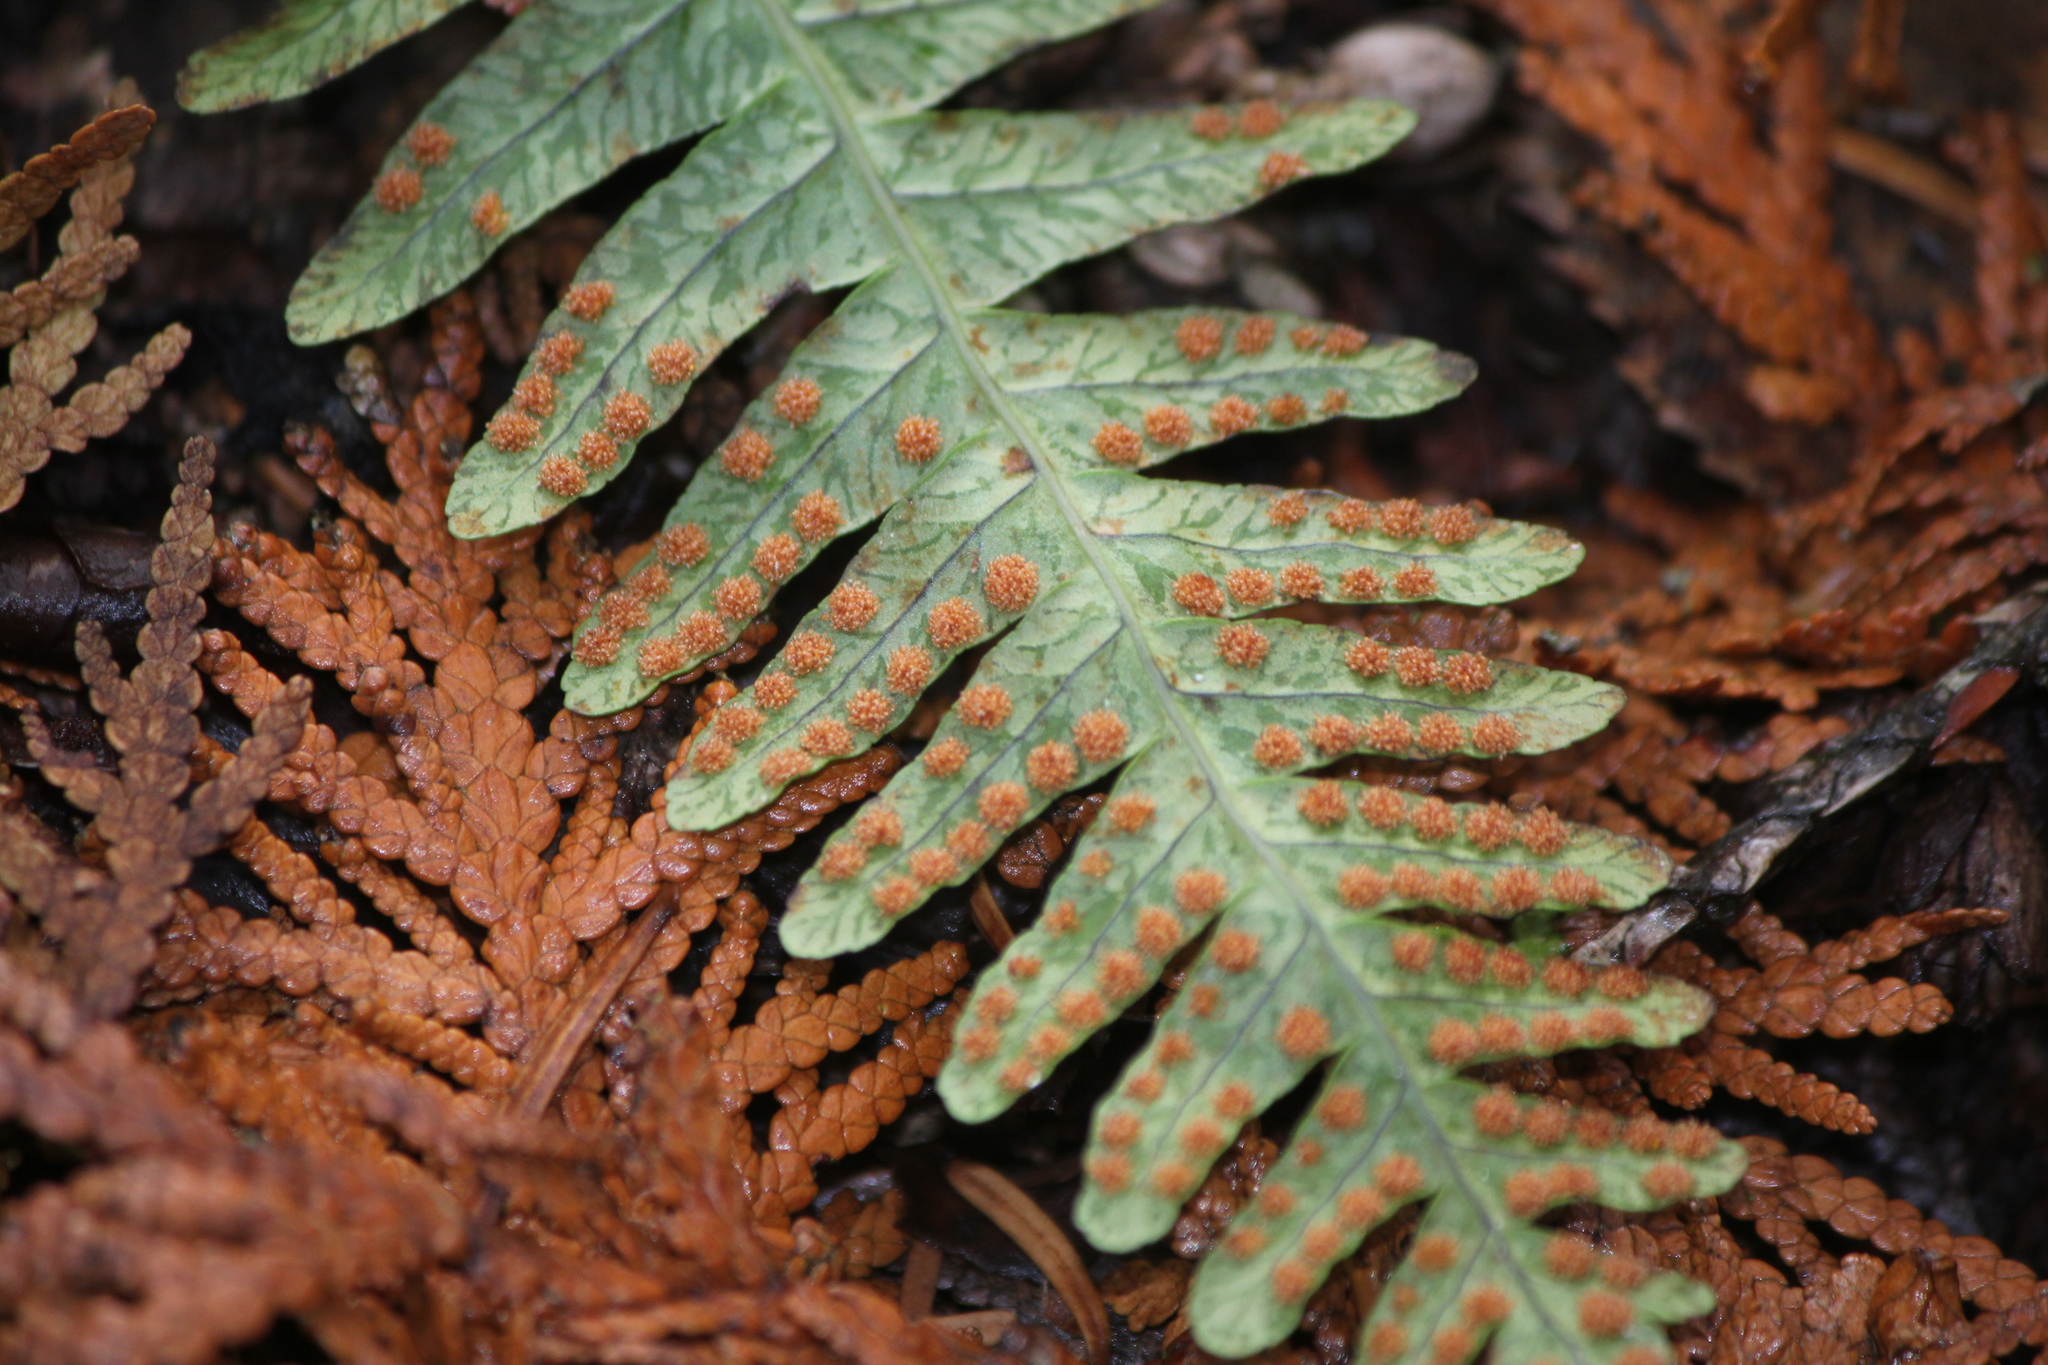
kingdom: Plantae
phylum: Tracheophyta
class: Polypodiopsida
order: Polypodiales
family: Polypodiaceae
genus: Polypodium
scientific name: Polypodium virginianum
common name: American wall fern
